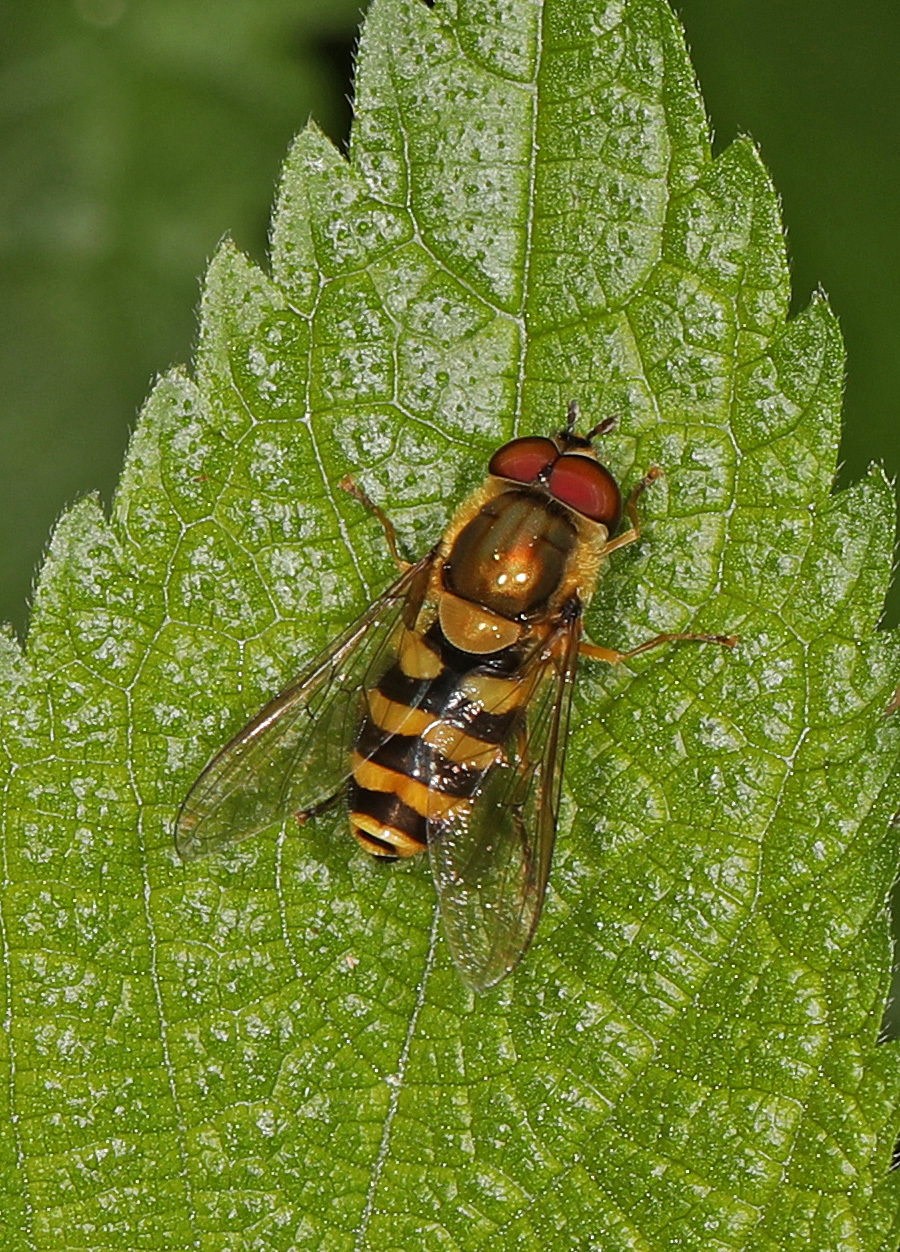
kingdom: Animalia
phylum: Arthropoda
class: Insecta
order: Diptera
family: Syrphidae
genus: Syrphus
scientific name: Syrphus
